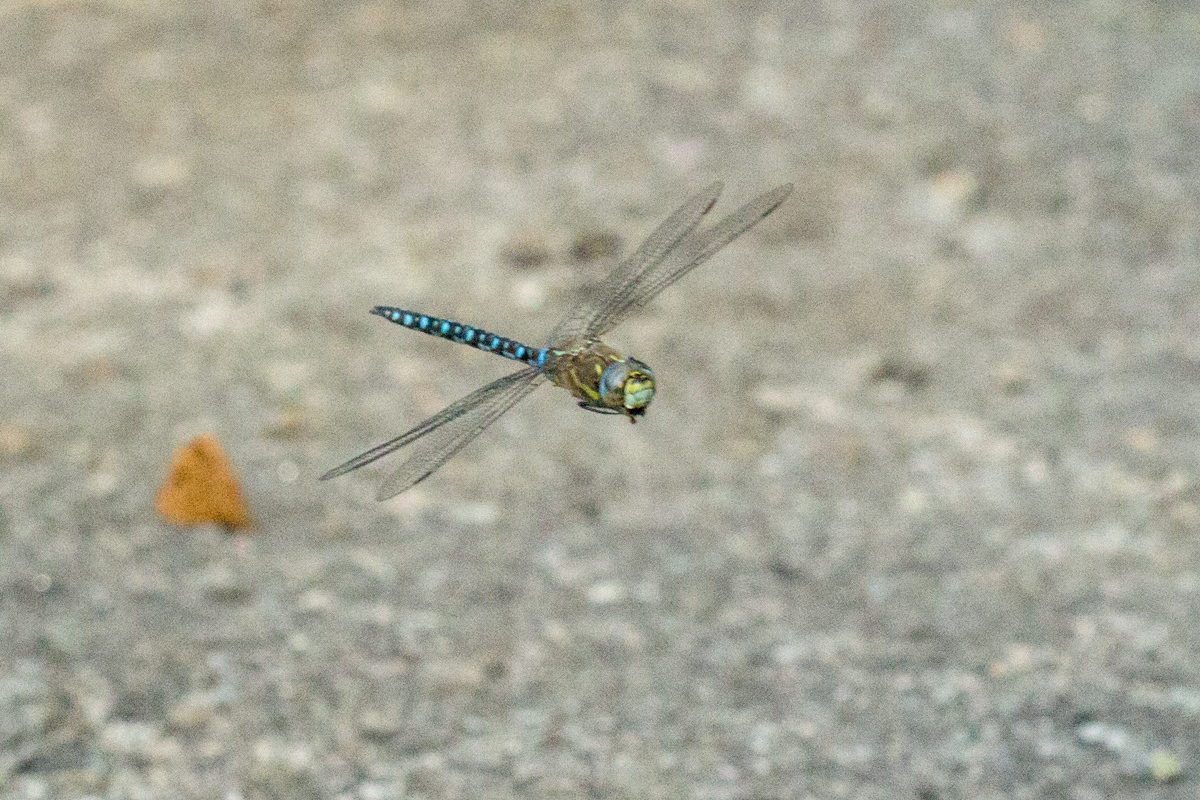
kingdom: Animalia
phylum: Arthropoda
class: Insecta
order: Odonata
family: Aeshnidae
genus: Aeshna
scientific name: Aeshna mixta
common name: Migrant hawker
